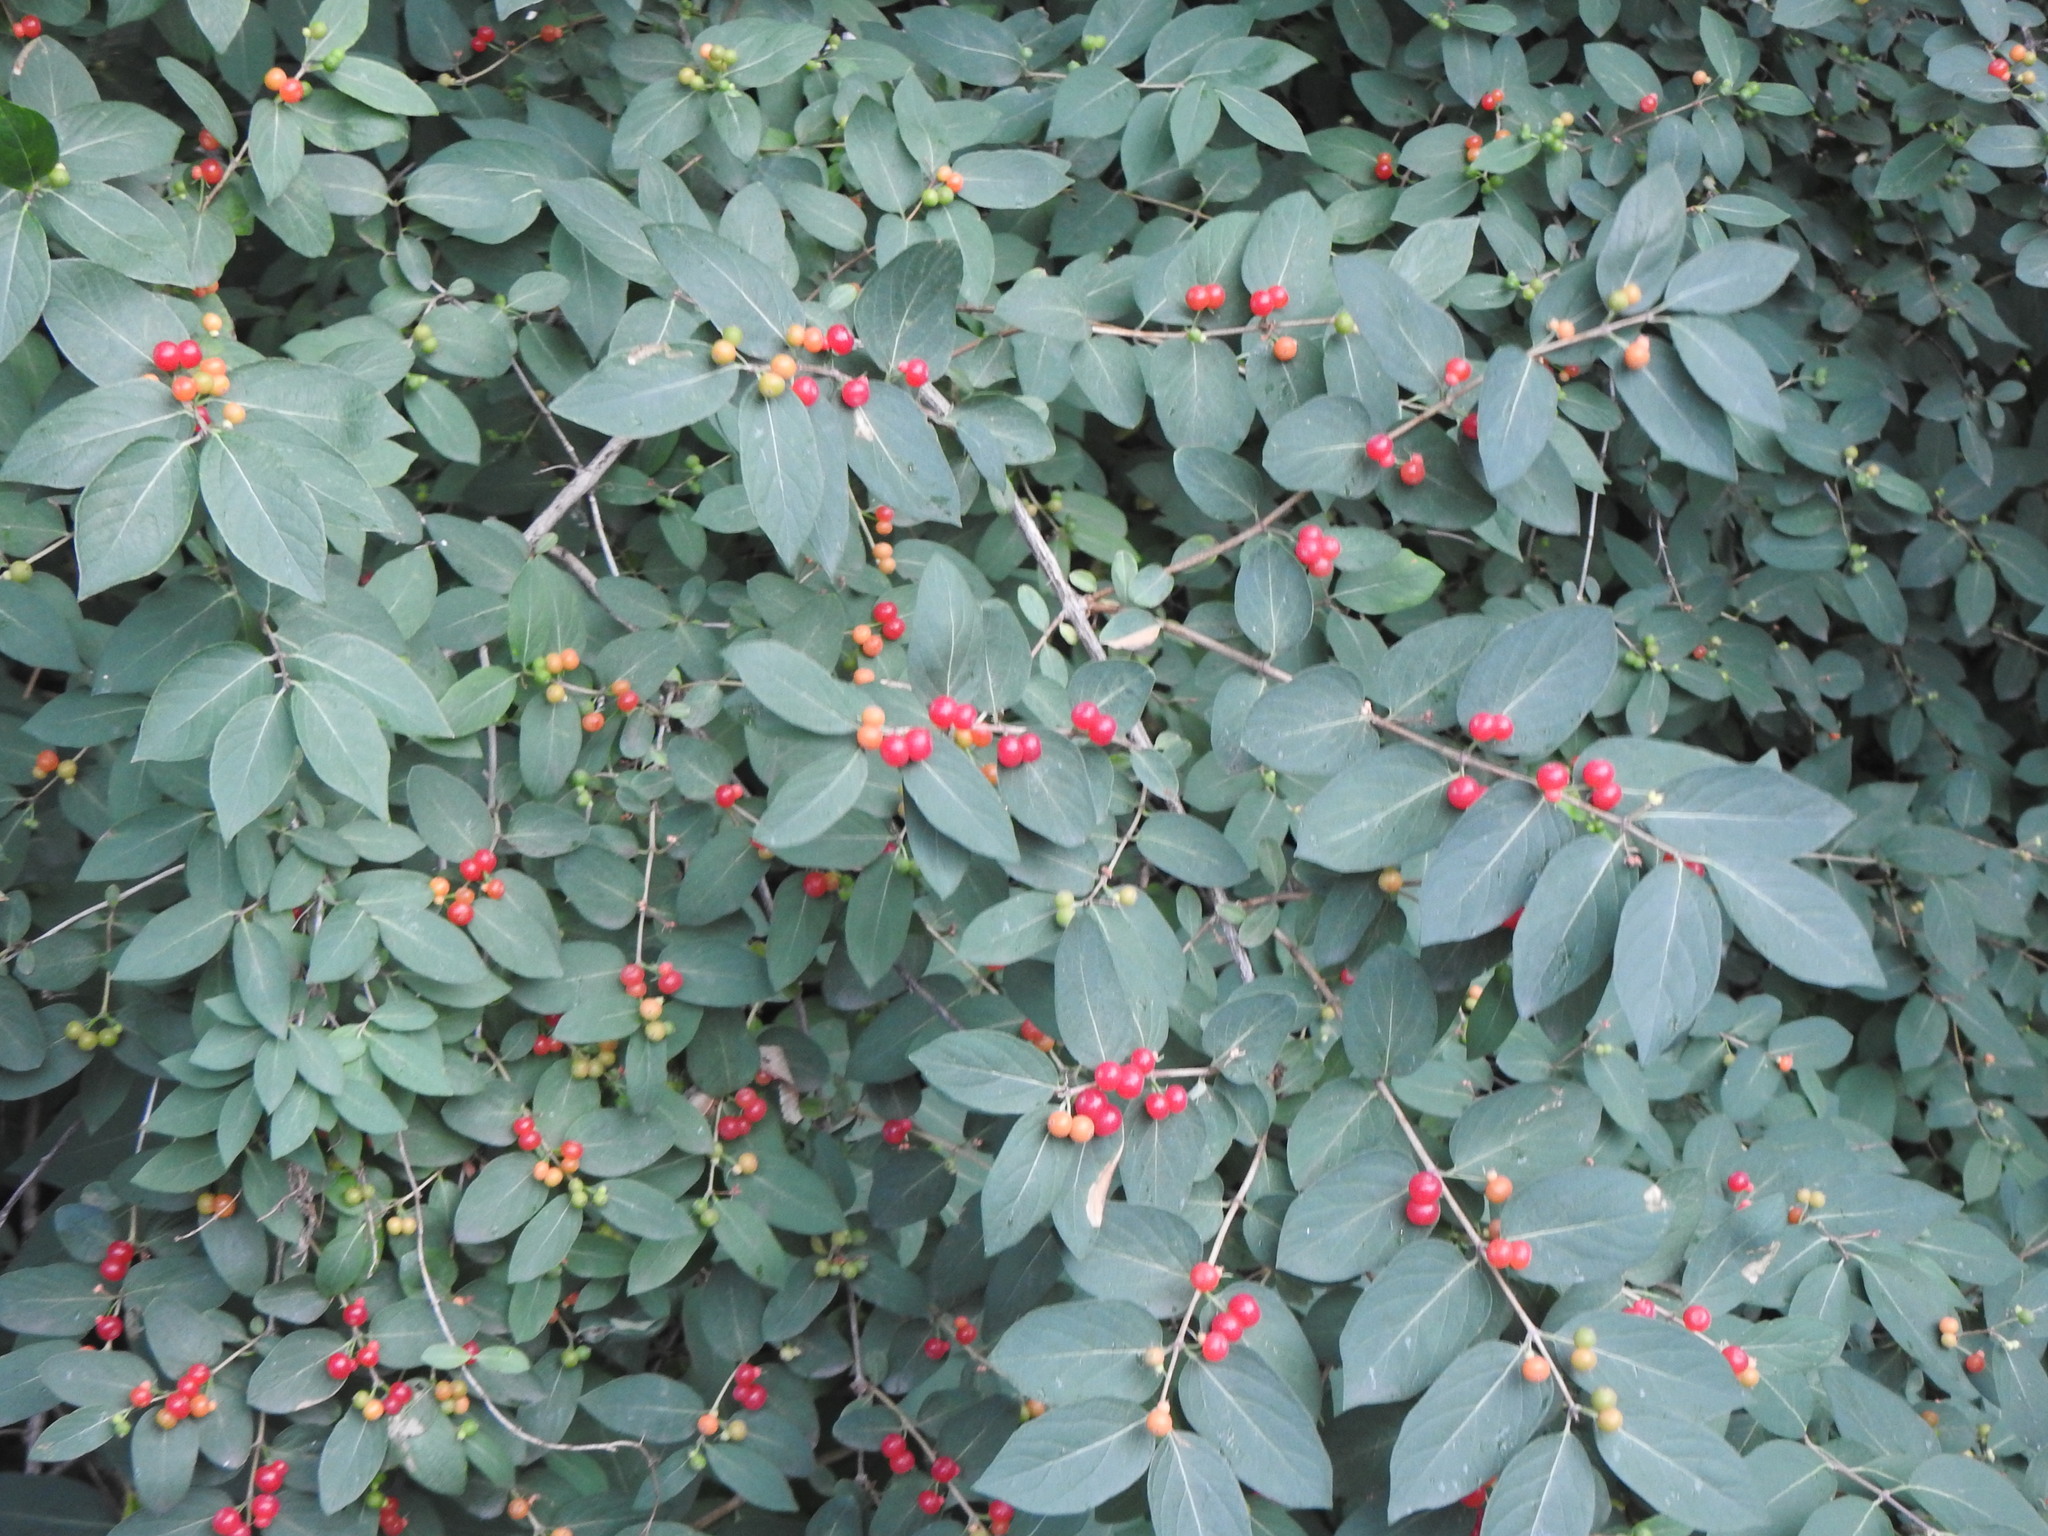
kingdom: Plantae
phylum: Tracheophyta
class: Magnoliopsida
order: Dipsacales
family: Caprifoliaceae
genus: Lonicera
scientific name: Lonicera
